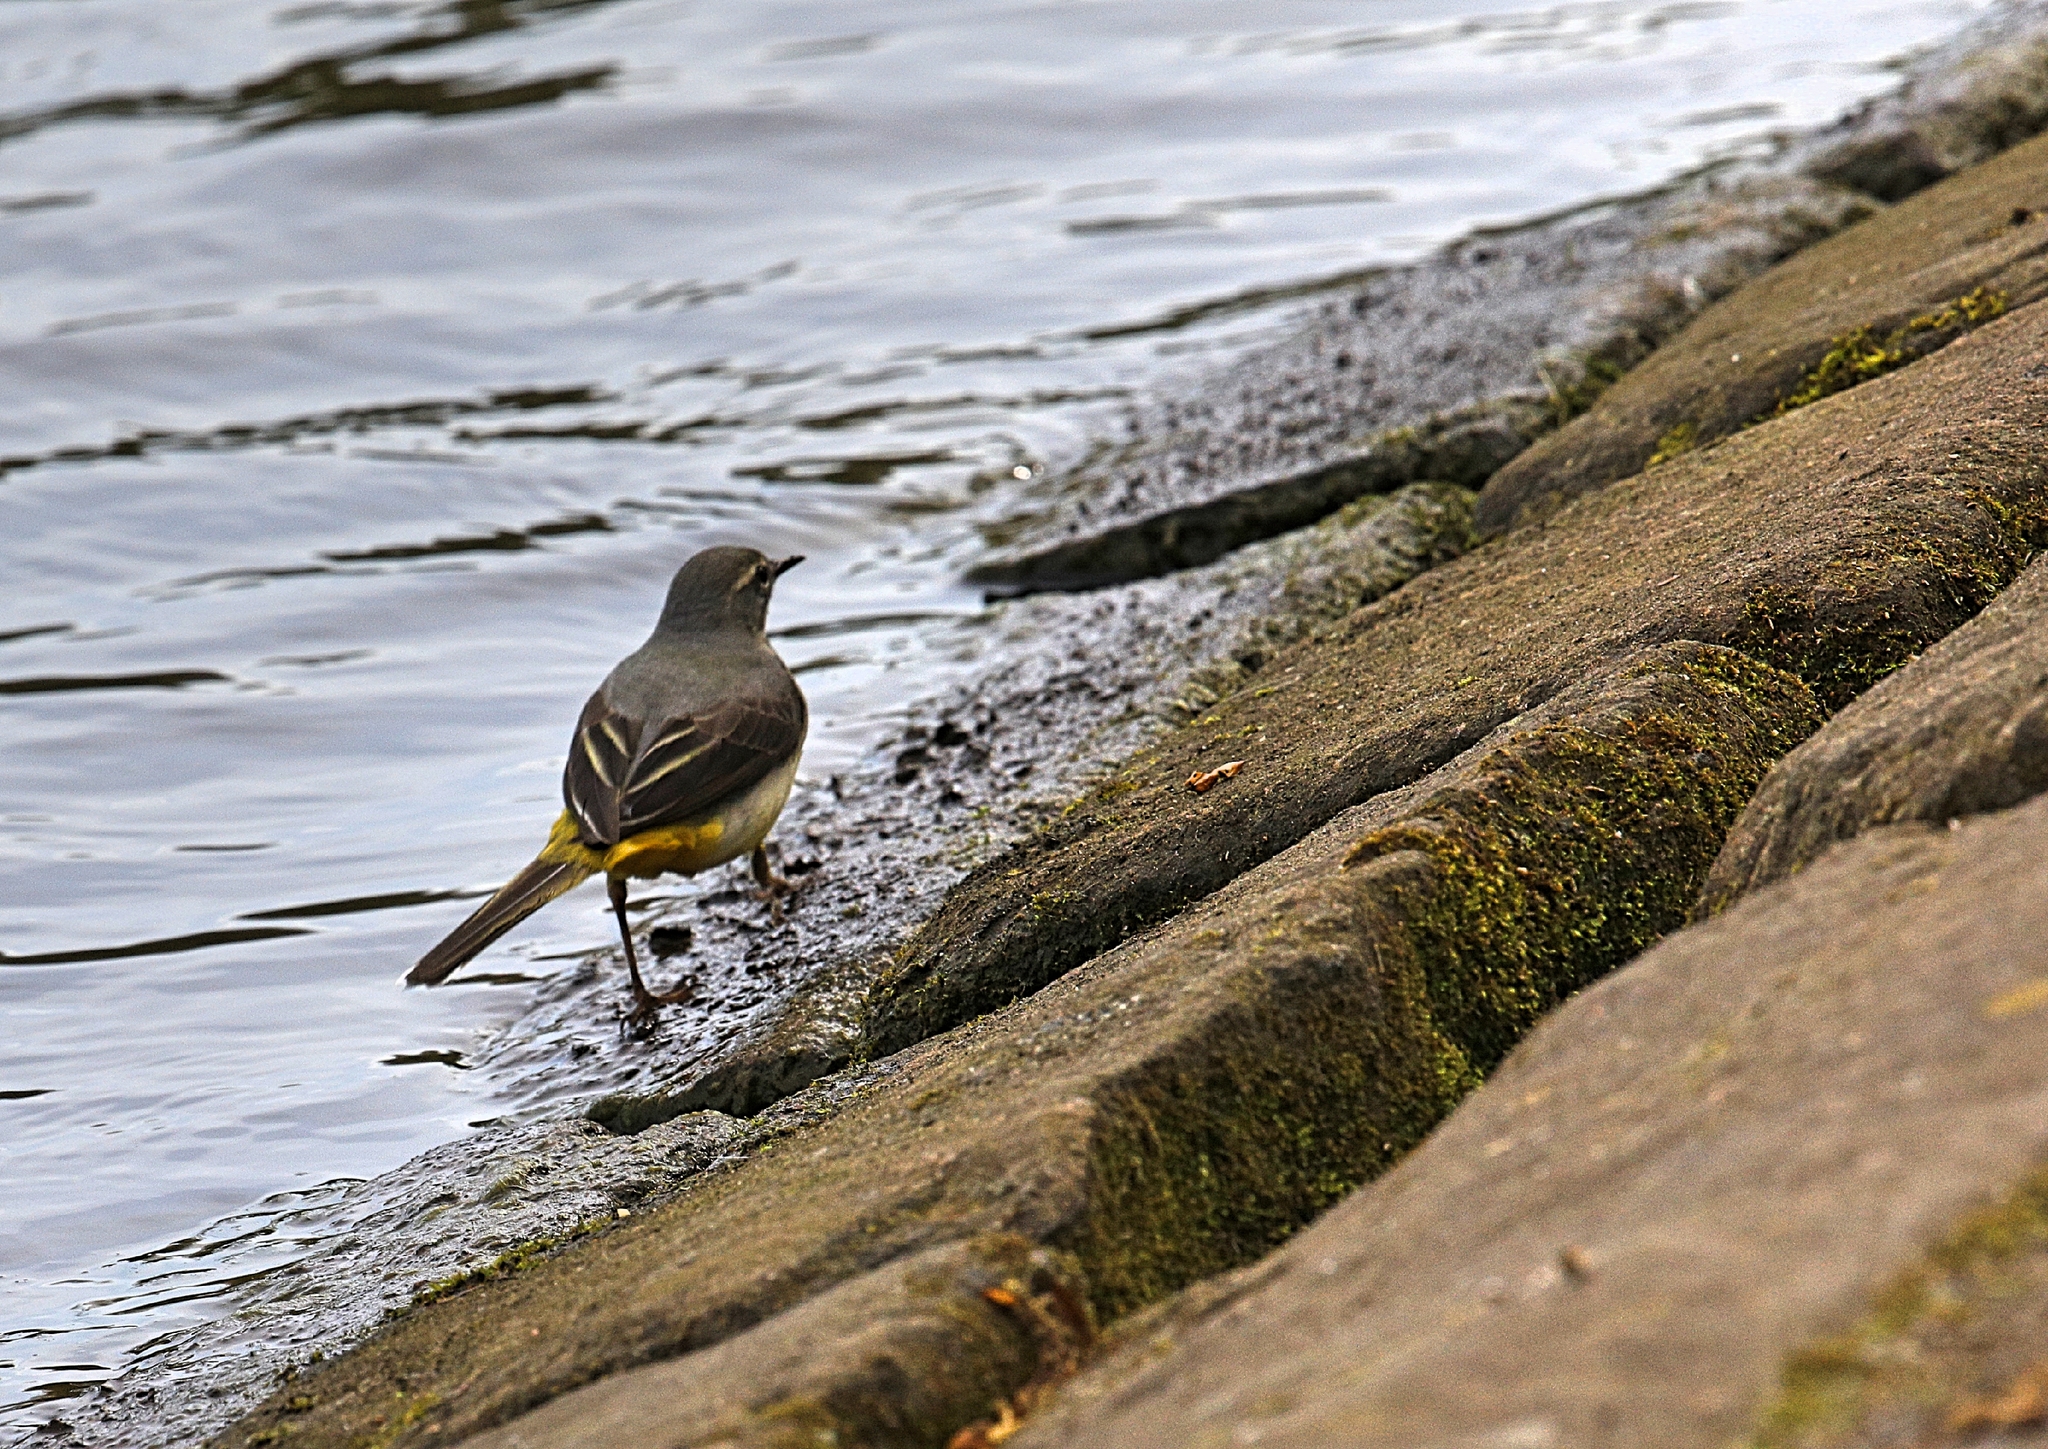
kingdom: Animalia
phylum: Chordata
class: Aves
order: Passeriformes
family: Motacillidae
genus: Motacilla
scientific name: Motacilla cinerea
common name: Grey wagtail
